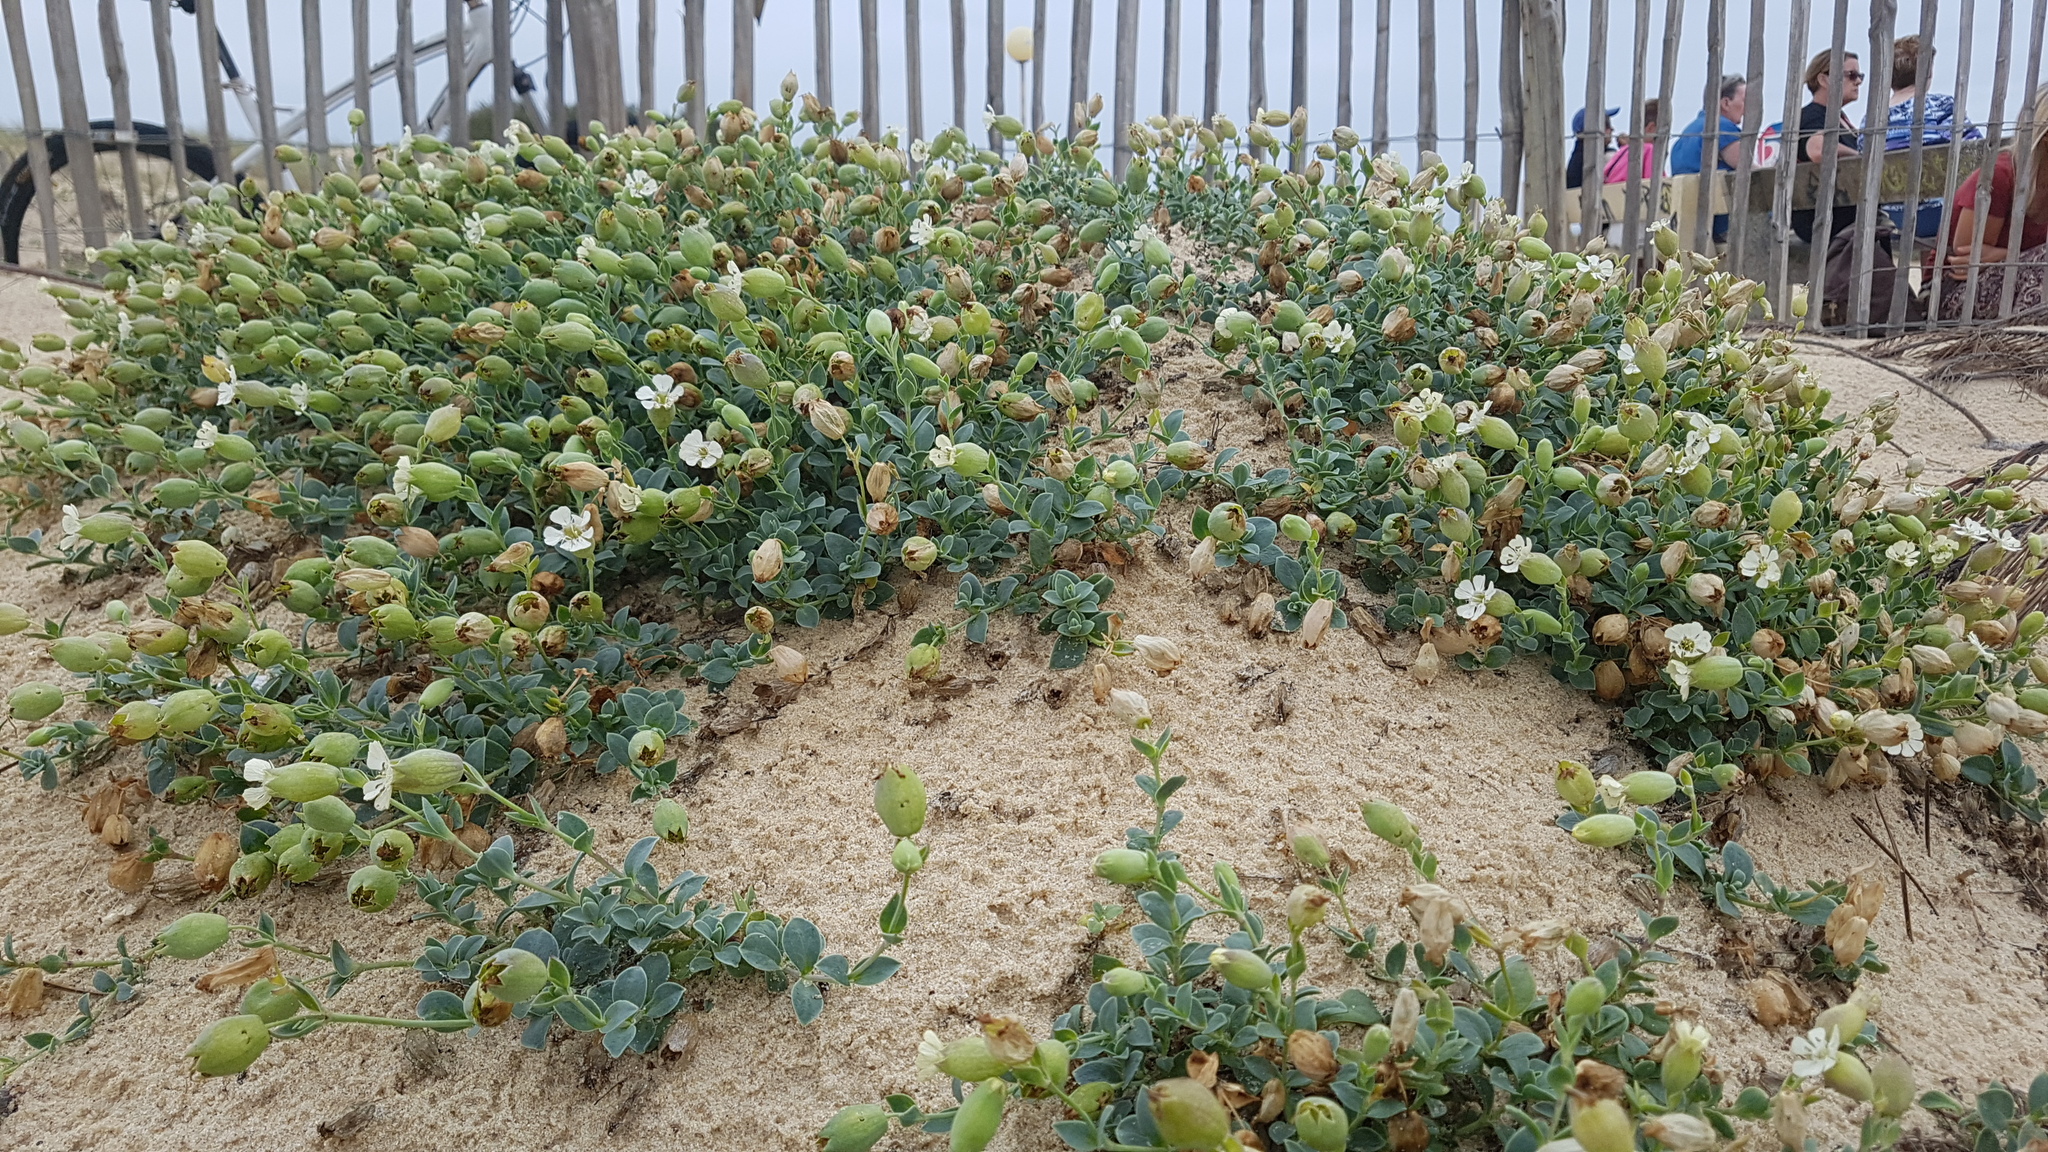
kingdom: Plantae
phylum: Tracheophyta
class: Magnoliopsida
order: Caryophyllales
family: Caryophyllaceae
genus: Silene
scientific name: Silene uniflora
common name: Sea campion
